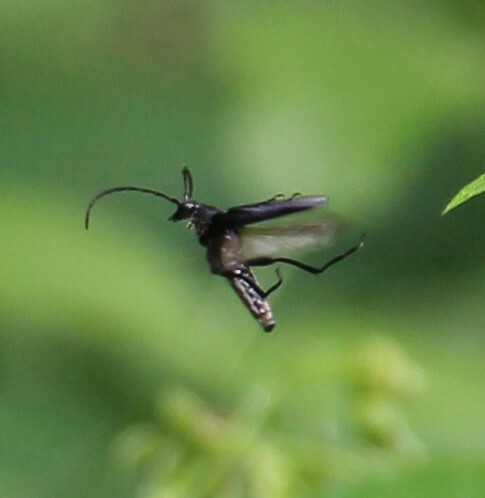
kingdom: Animalia
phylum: Arthropoda
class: Insecta
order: Coleoptera
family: Cerambycidae
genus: Leptura
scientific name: Leptura aethiops
